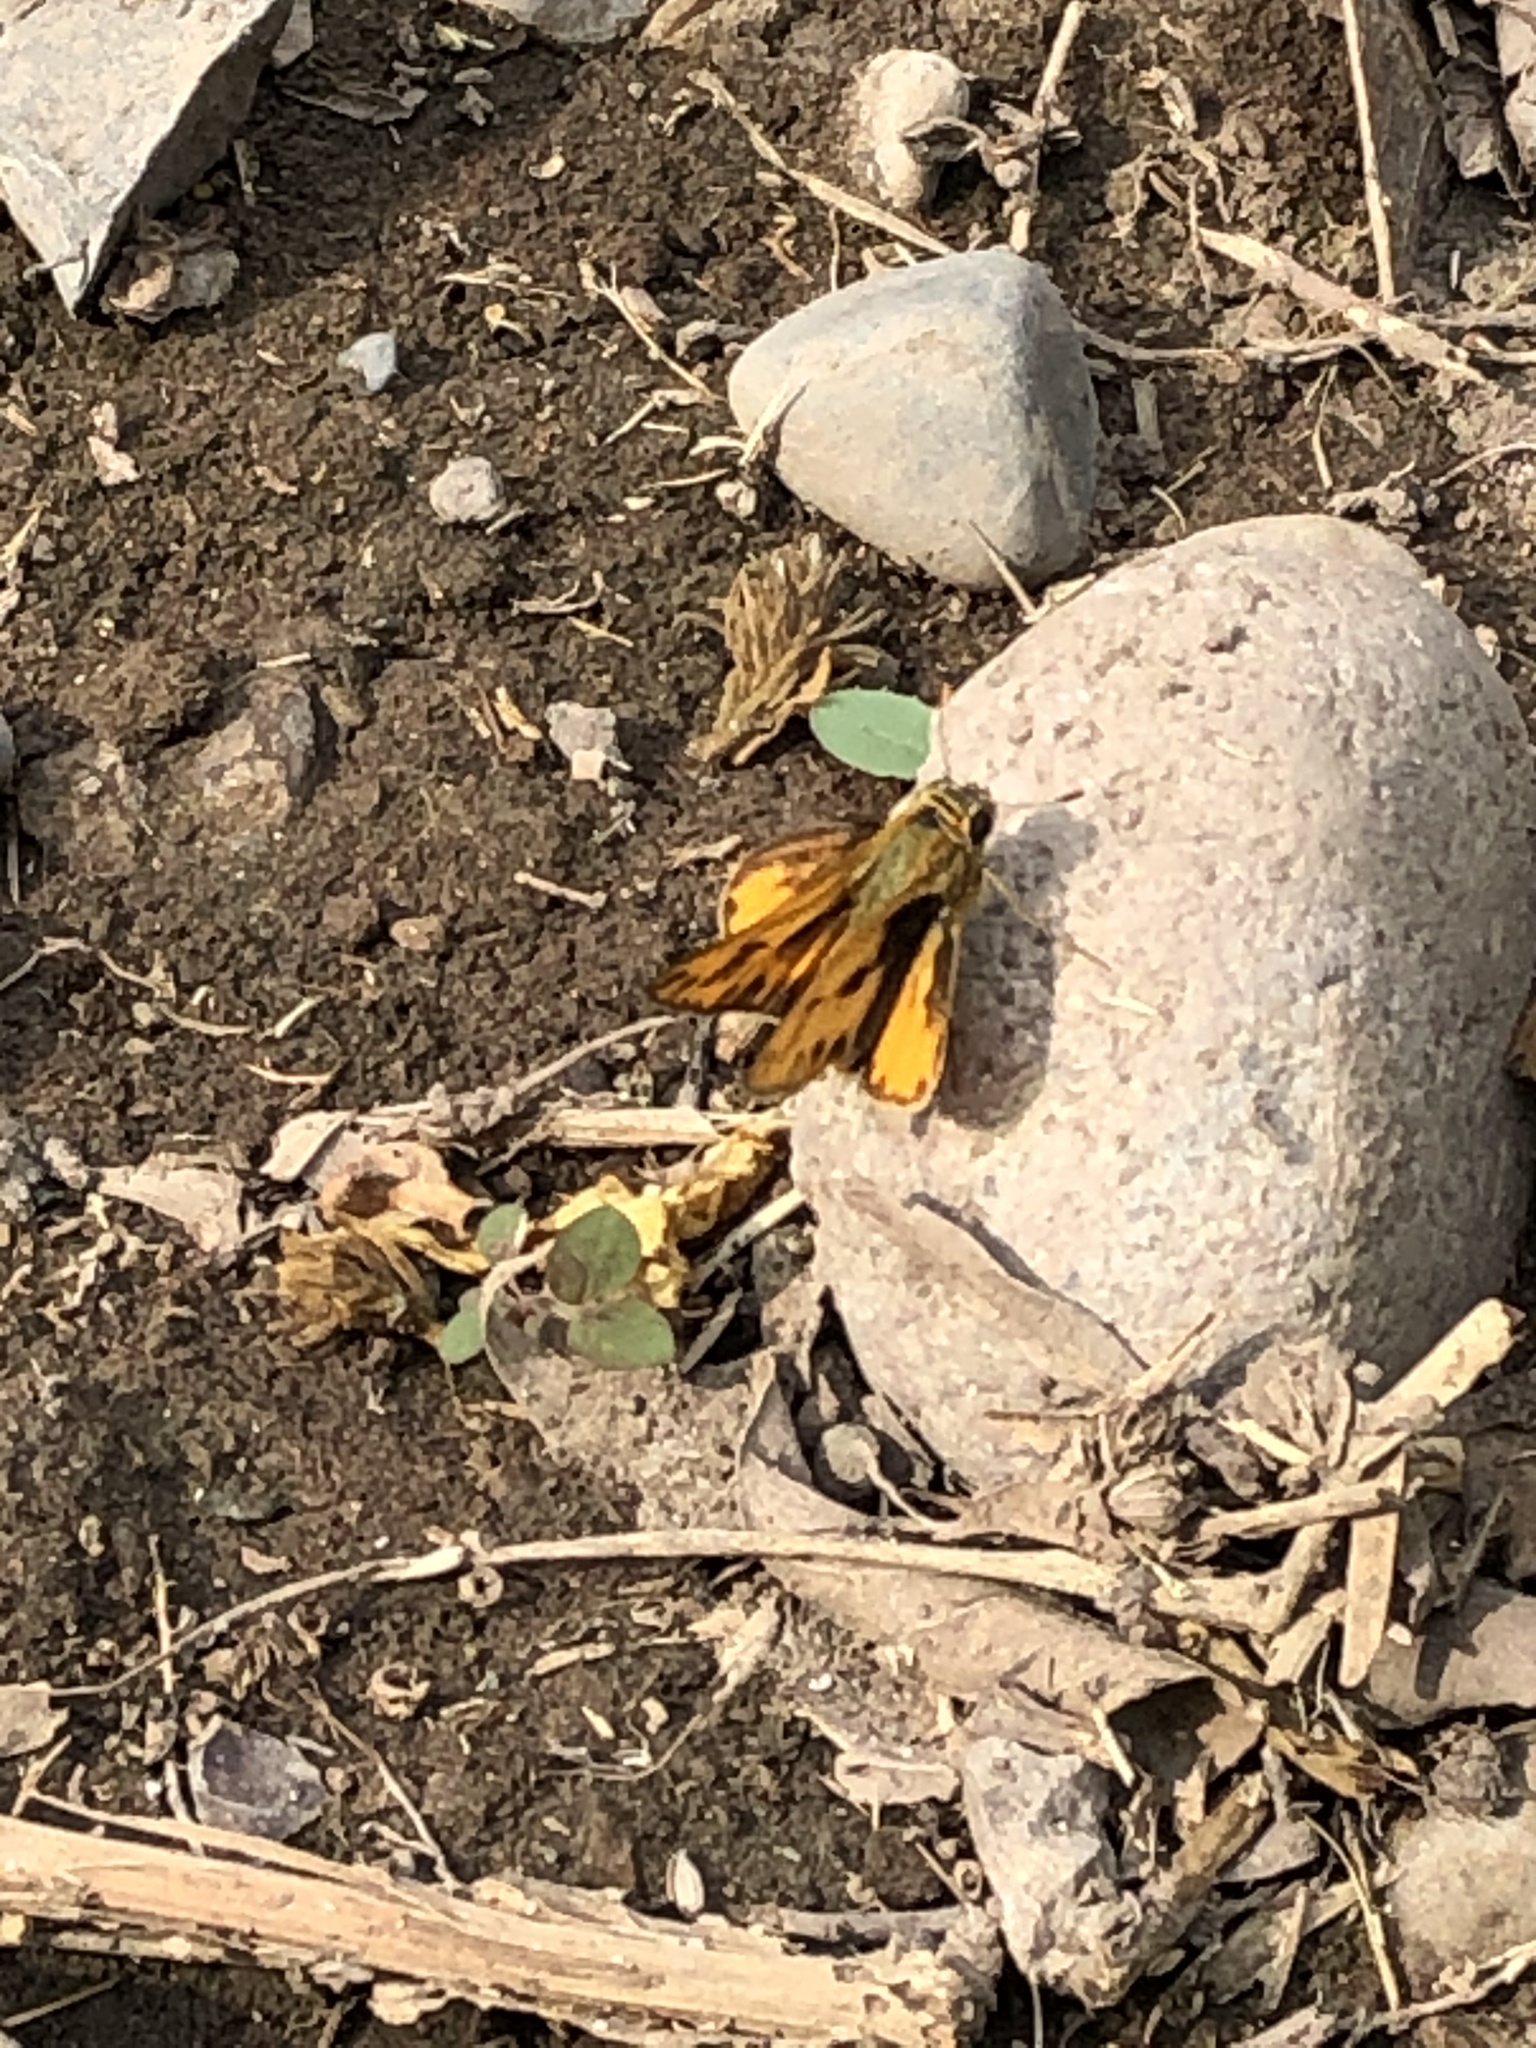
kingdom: Animalia
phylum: Arthropoda
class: Insecta
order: Lepidoptera
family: Hesperiidae
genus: Hylephila
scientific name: Hylephila phyleus
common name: Fiery skipper
